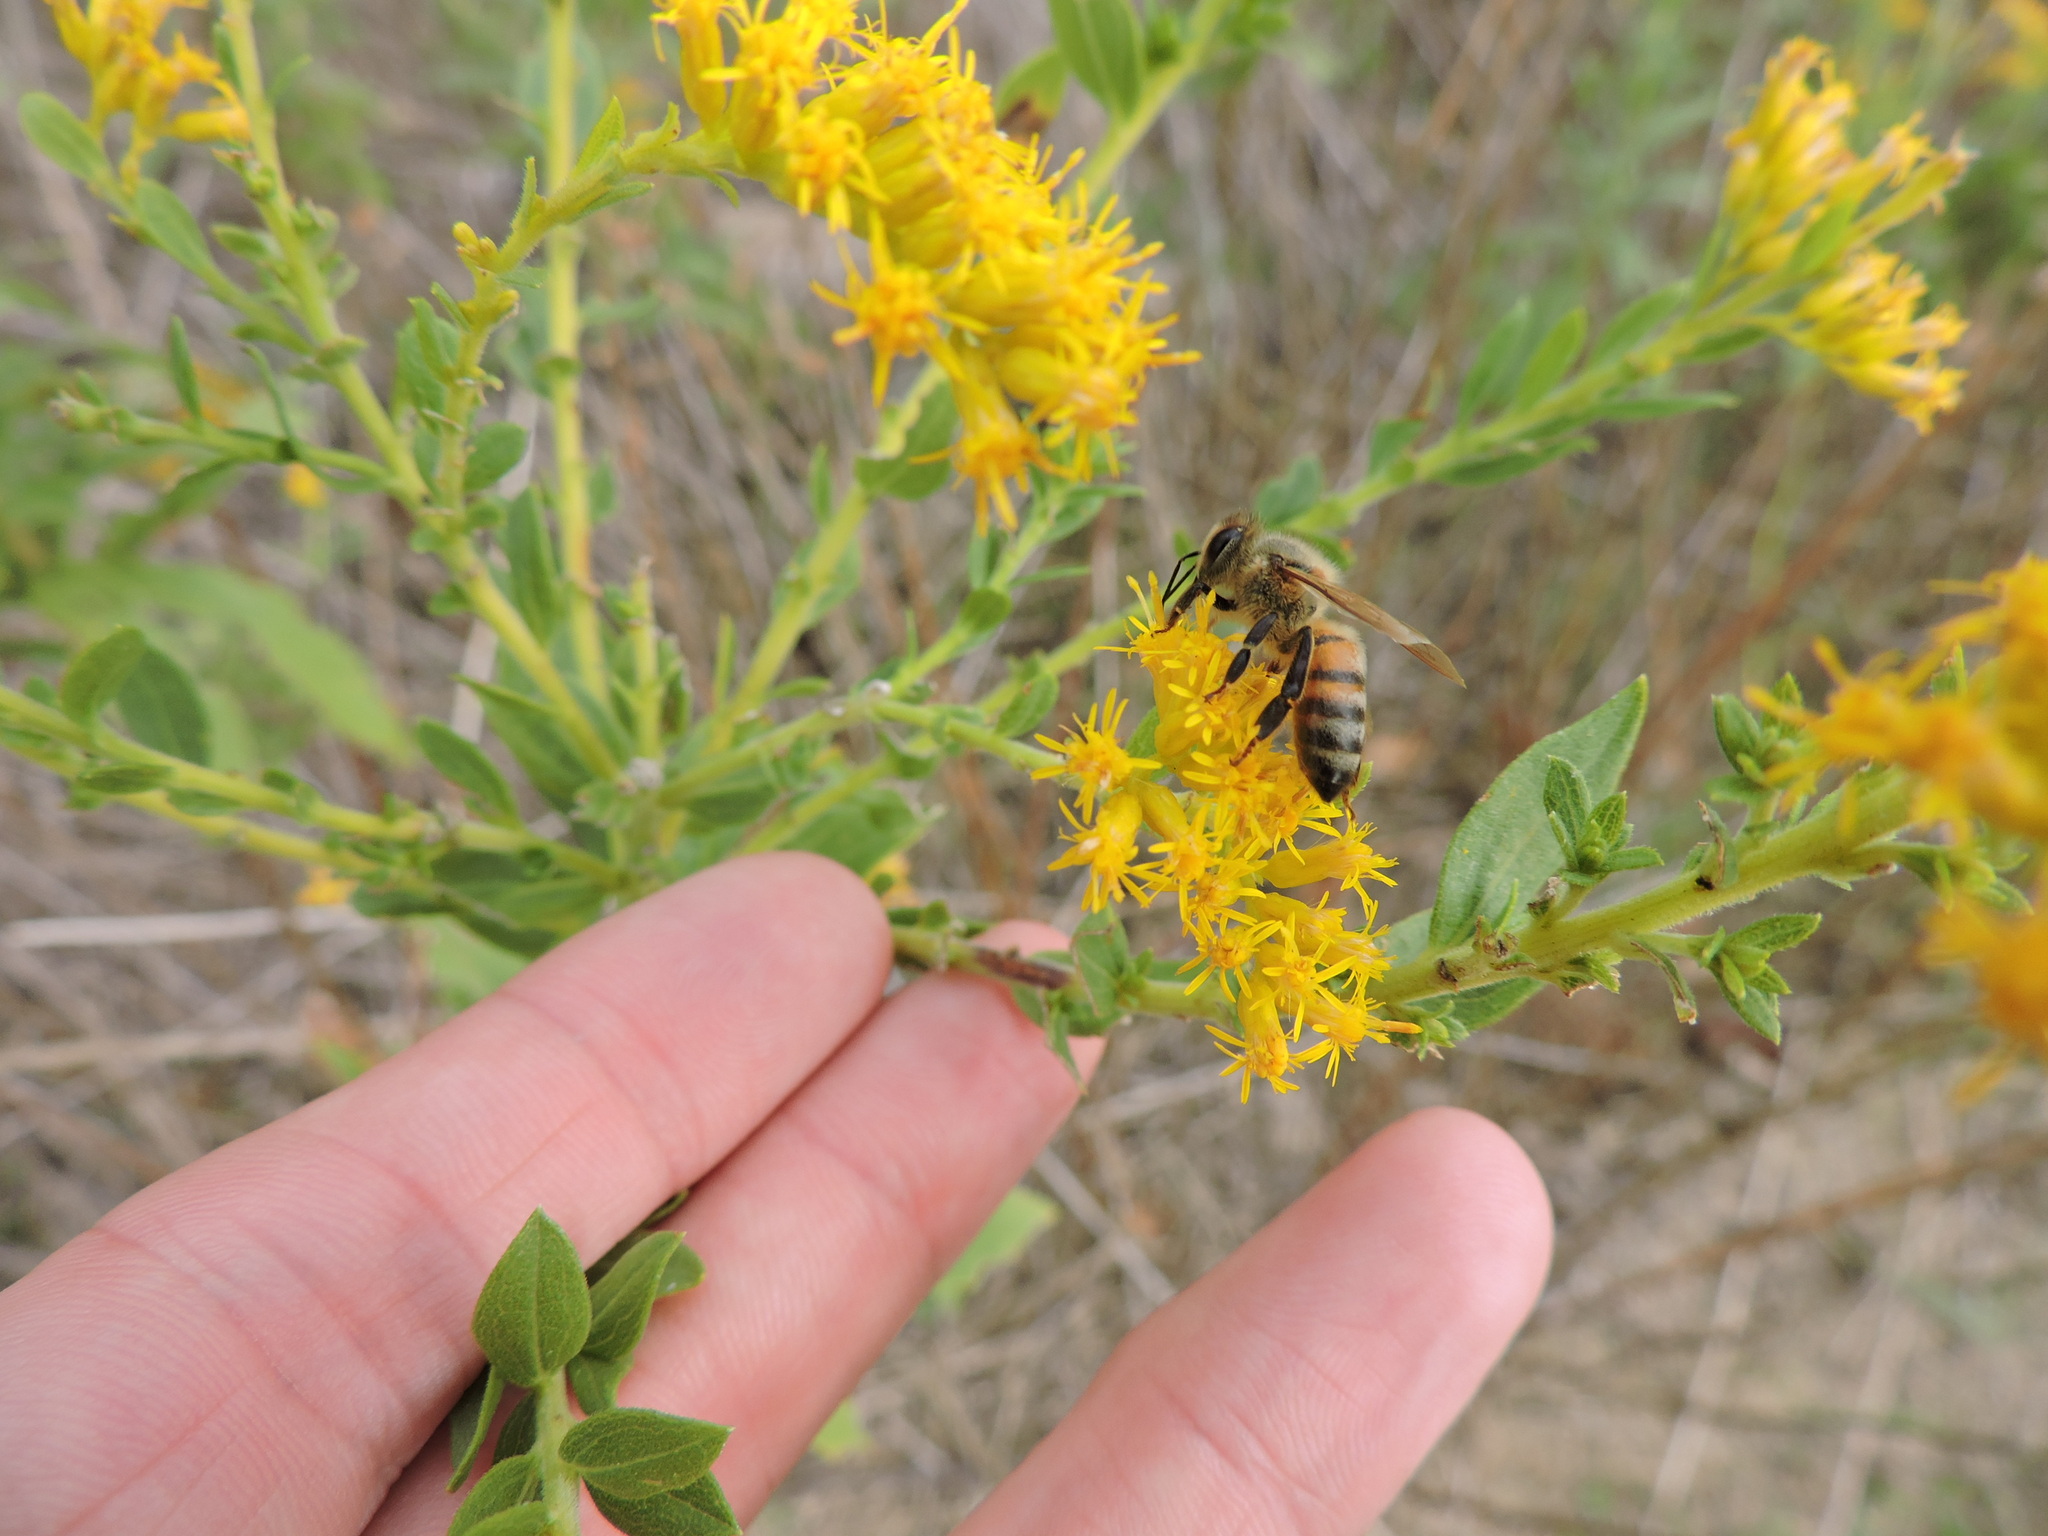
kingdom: Animalia
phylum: Arthropoda
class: Insecta
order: Hymenoptera
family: Apidae
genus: Apis
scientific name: Apis mellifera
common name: Honey bee
